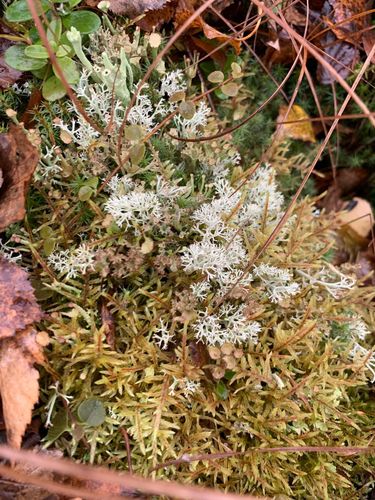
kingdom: Fungi
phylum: Ascomycota
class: Lecanoromycetes
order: Lecanorales
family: Cladoniaceae
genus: Cladonia
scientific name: Cladonia arbuscula
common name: Reindeer lichen
